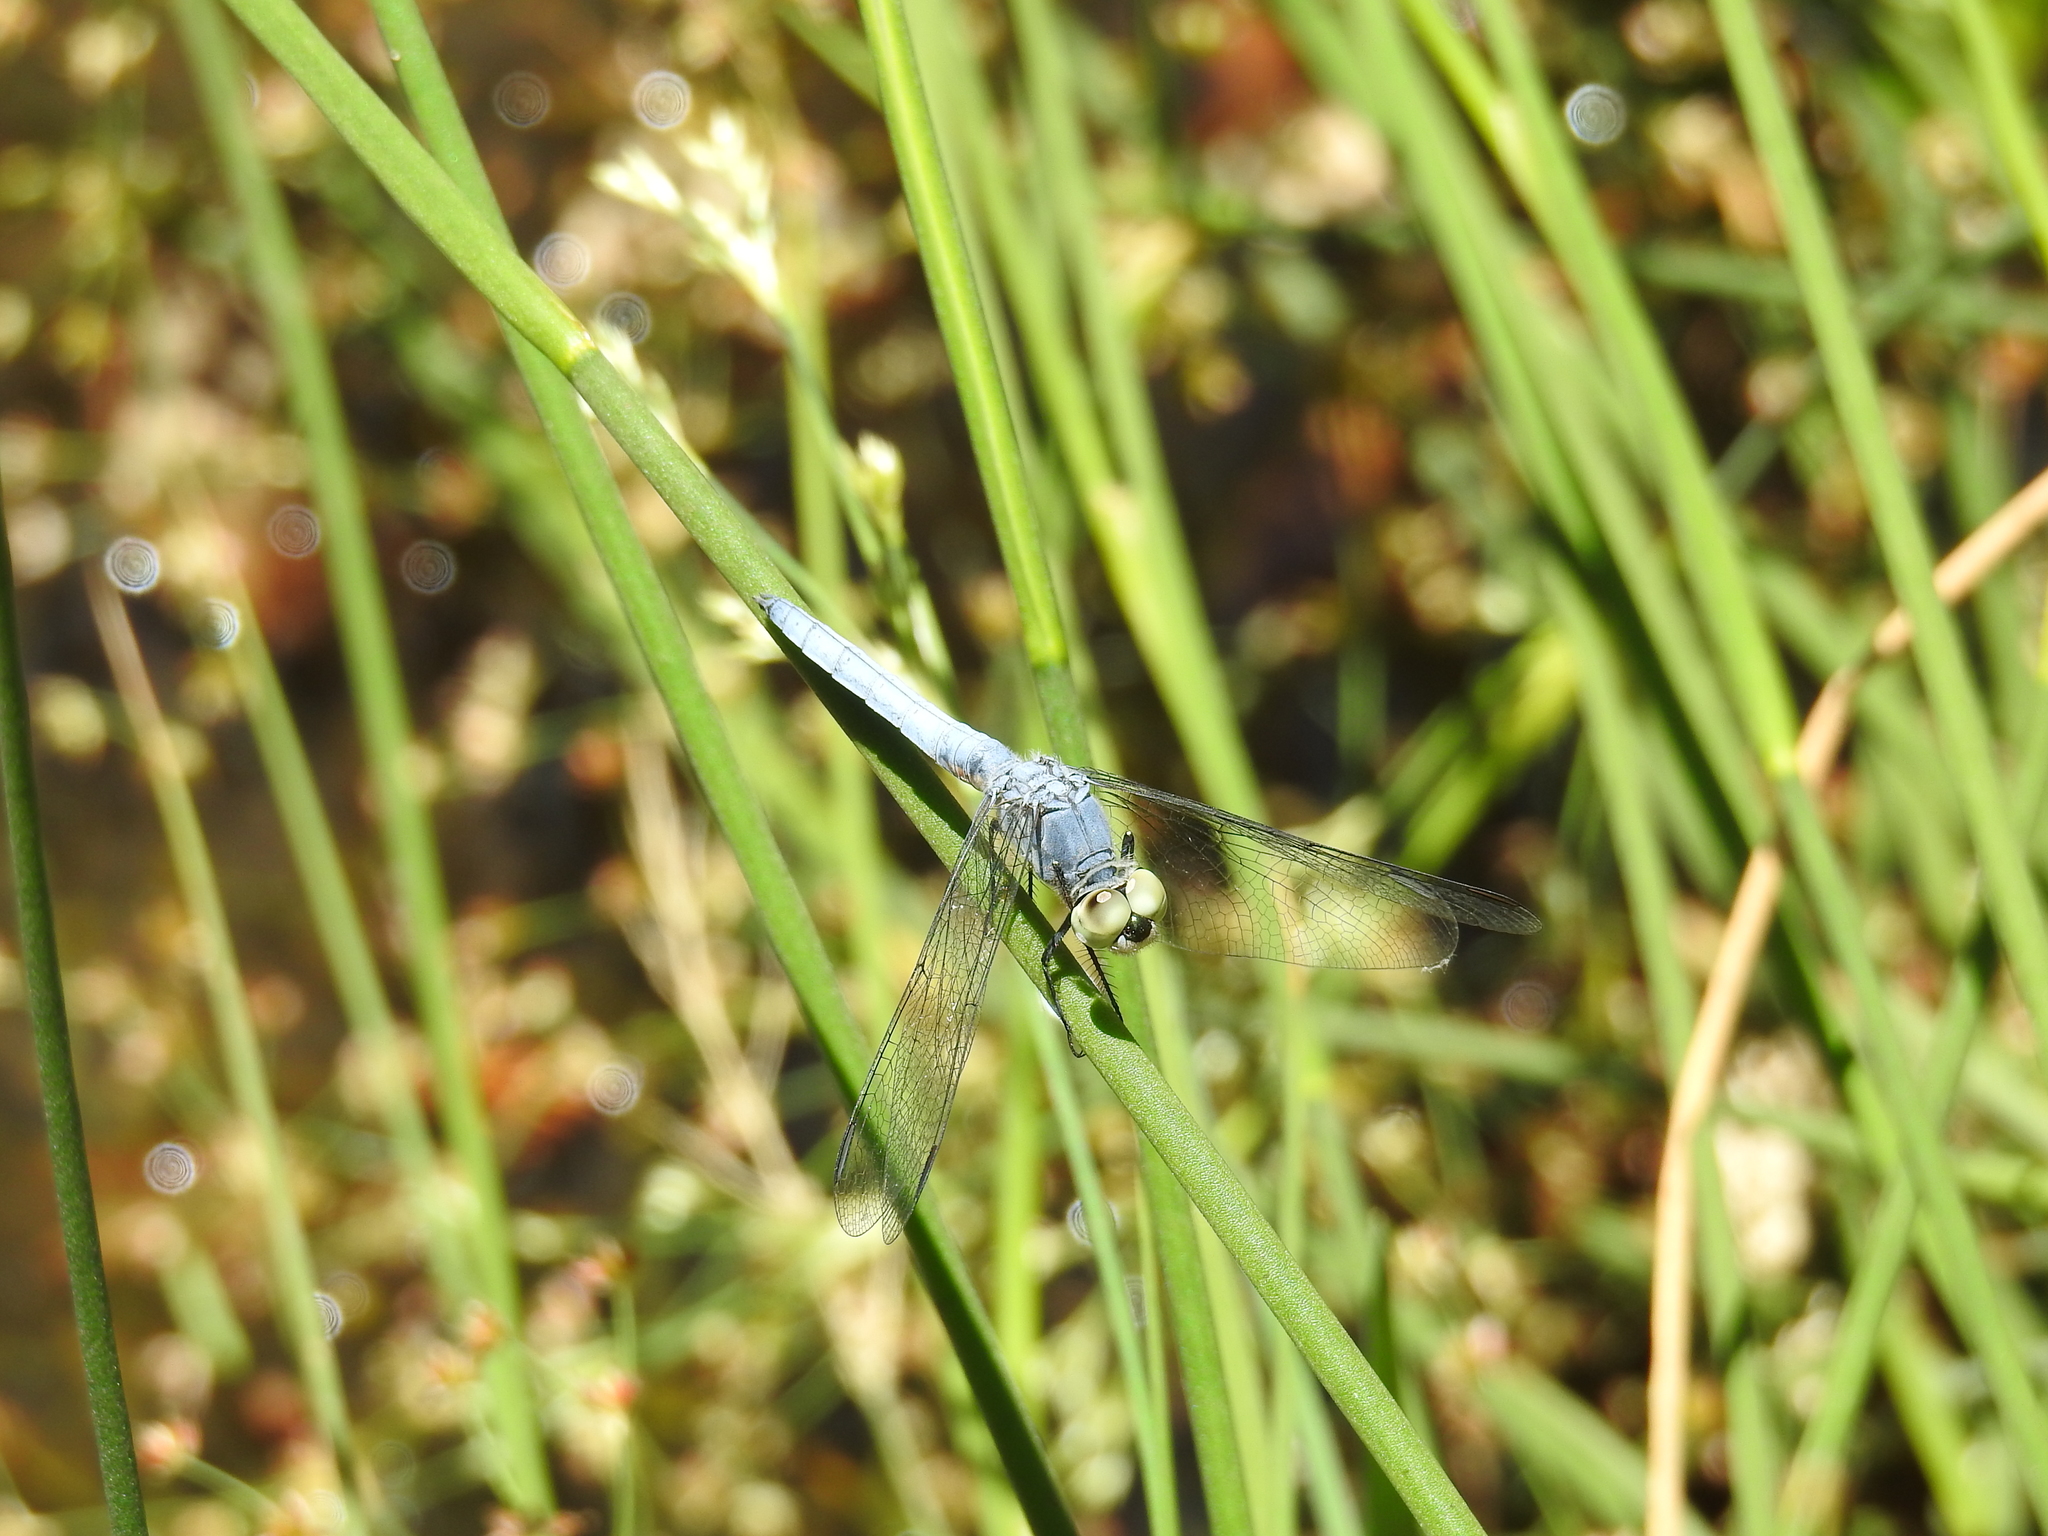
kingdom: Animalia
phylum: Arthropoda
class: Insecta
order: Odonata
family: Libellulidae
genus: Pachydiplax
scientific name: Pachydiplax longipennis
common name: Blue dasher
